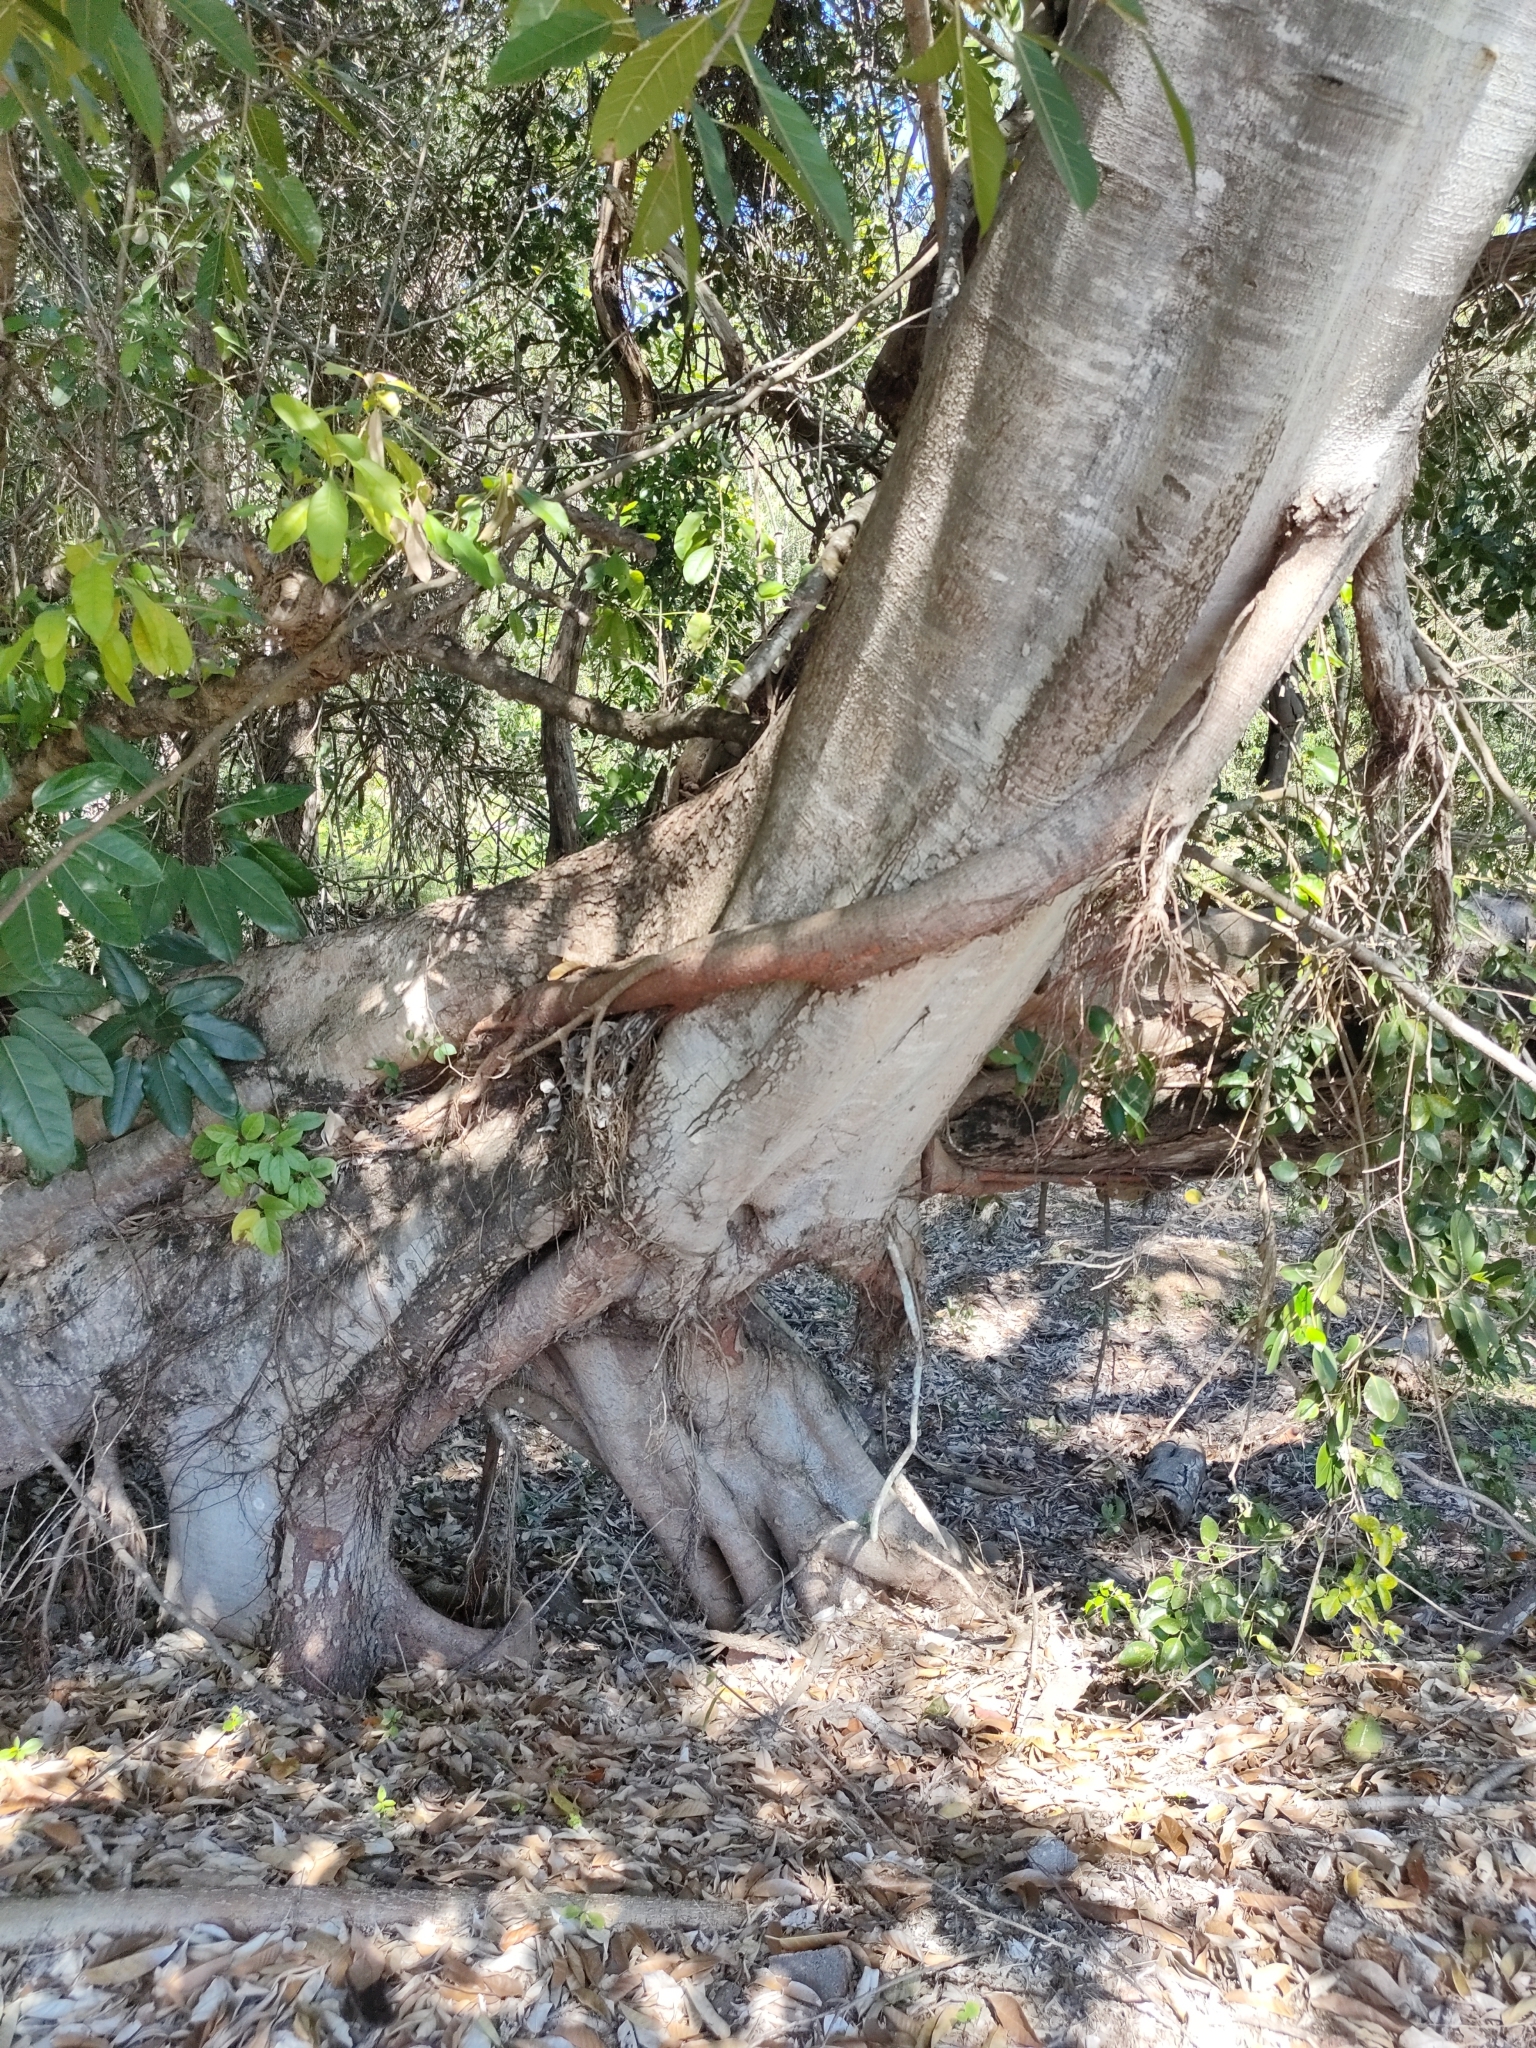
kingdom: Plantae
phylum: Tracheophyta
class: Magnoliopsida
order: Rosales
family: Moraceae
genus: Ficus
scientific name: Ficus virens
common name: Spotted fig
